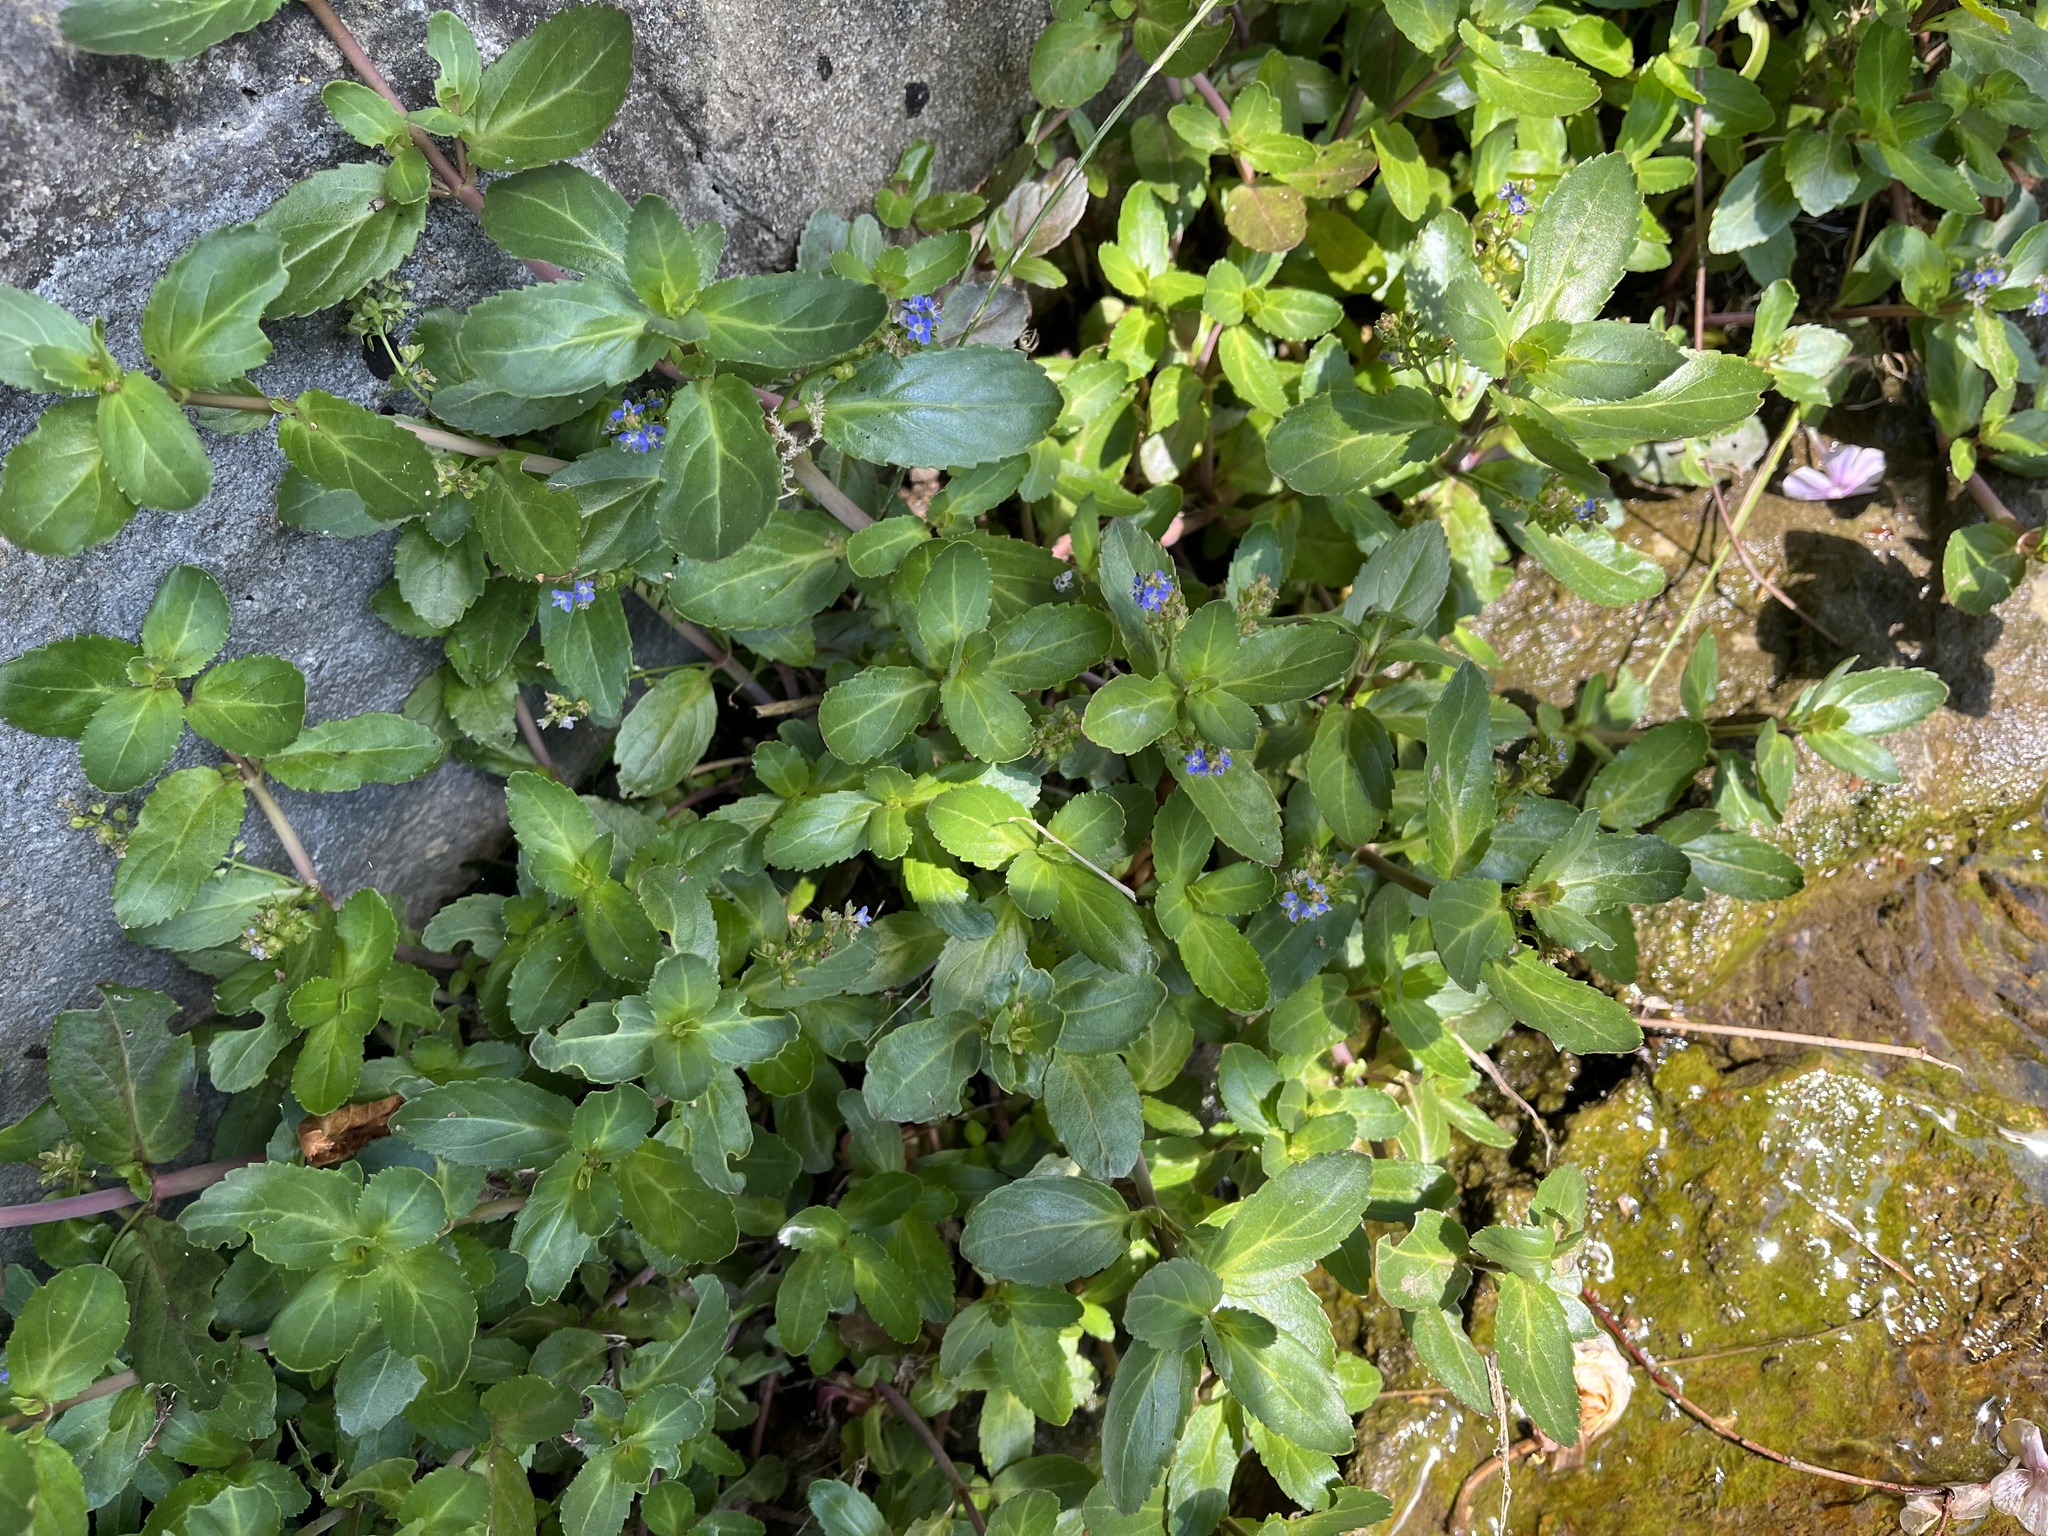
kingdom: Plantae
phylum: Tracheophyta
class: Magnoliopsida
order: Lamiales
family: Plantaginaceae
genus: Veronica
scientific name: Veronica beccabunga
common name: Brooklime
